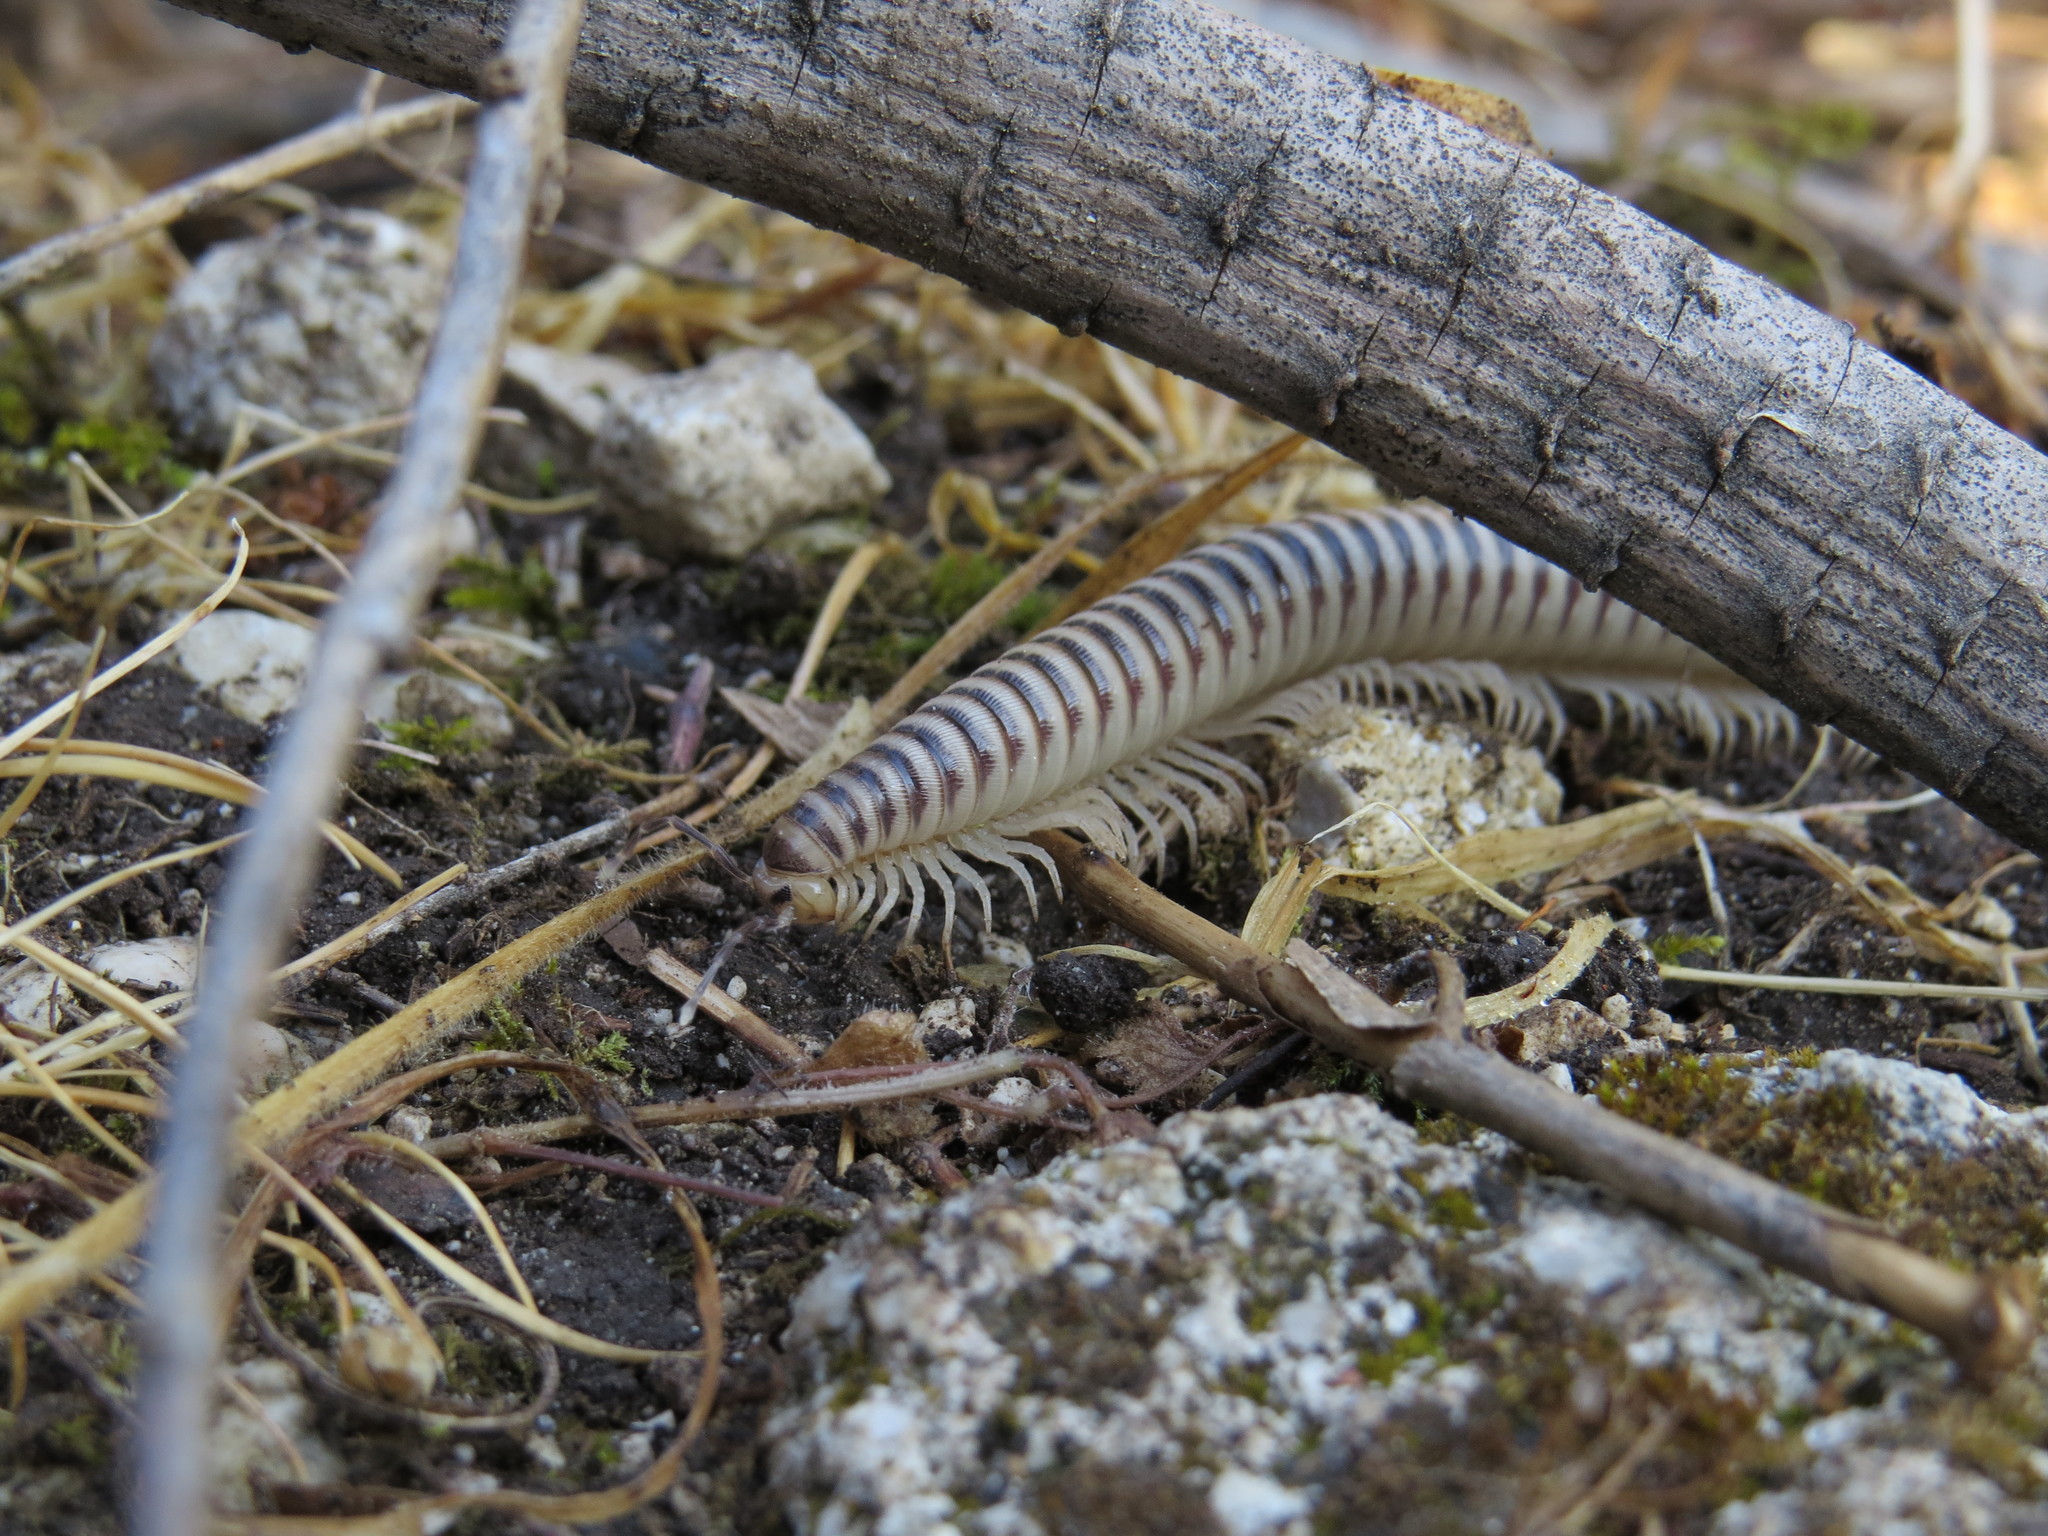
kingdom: Animalia
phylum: Arthropoda
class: Diplopoda
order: Callipodida
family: Schizopetalidae
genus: Eurygyrus
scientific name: Eurygyrus xanthinus
